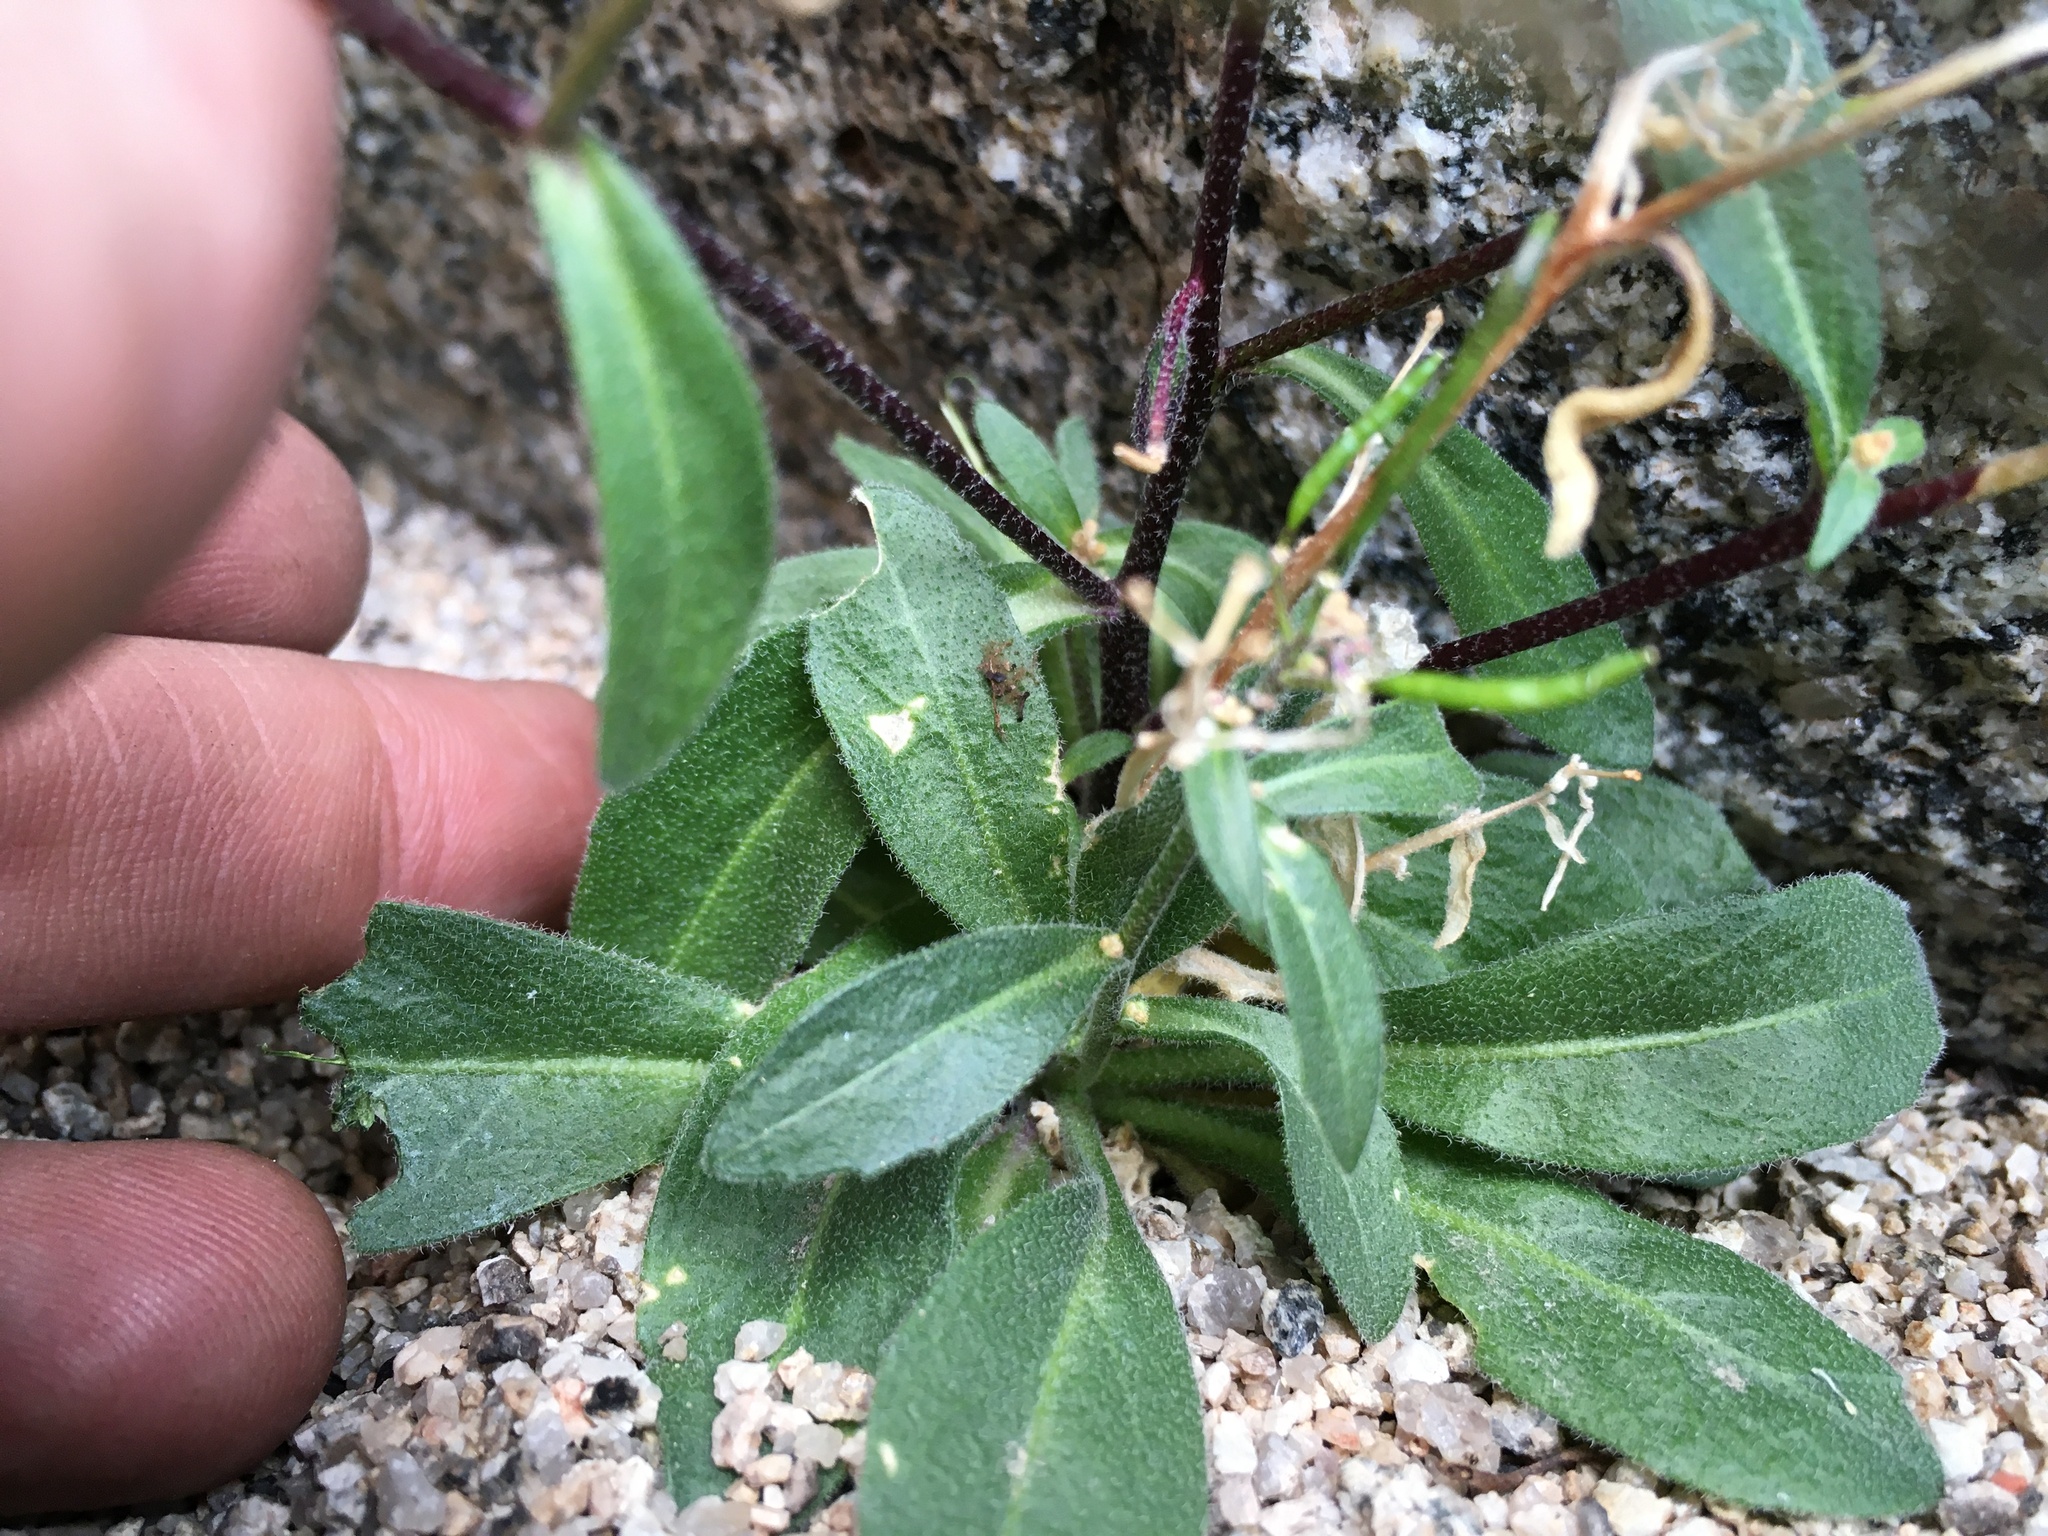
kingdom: Plantae
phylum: Tracheophyta
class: Magnoliopsida
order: Brassicales
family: Brassicaceae
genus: Yosemitea
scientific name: Yosemitea repanda
